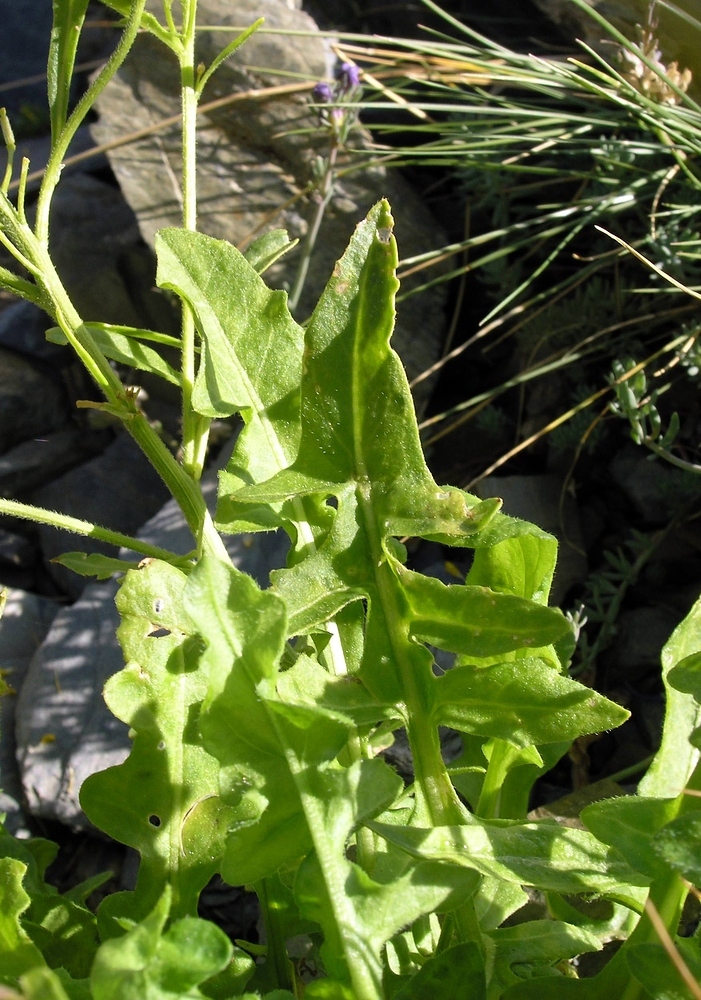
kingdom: Plantae
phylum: Tracheophyta
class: Magnoliopsida
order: Brassicales
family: Brassicaceae
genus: Sisymbrium
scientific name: Sisymbrium austriacum
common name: Jeweled rocket
